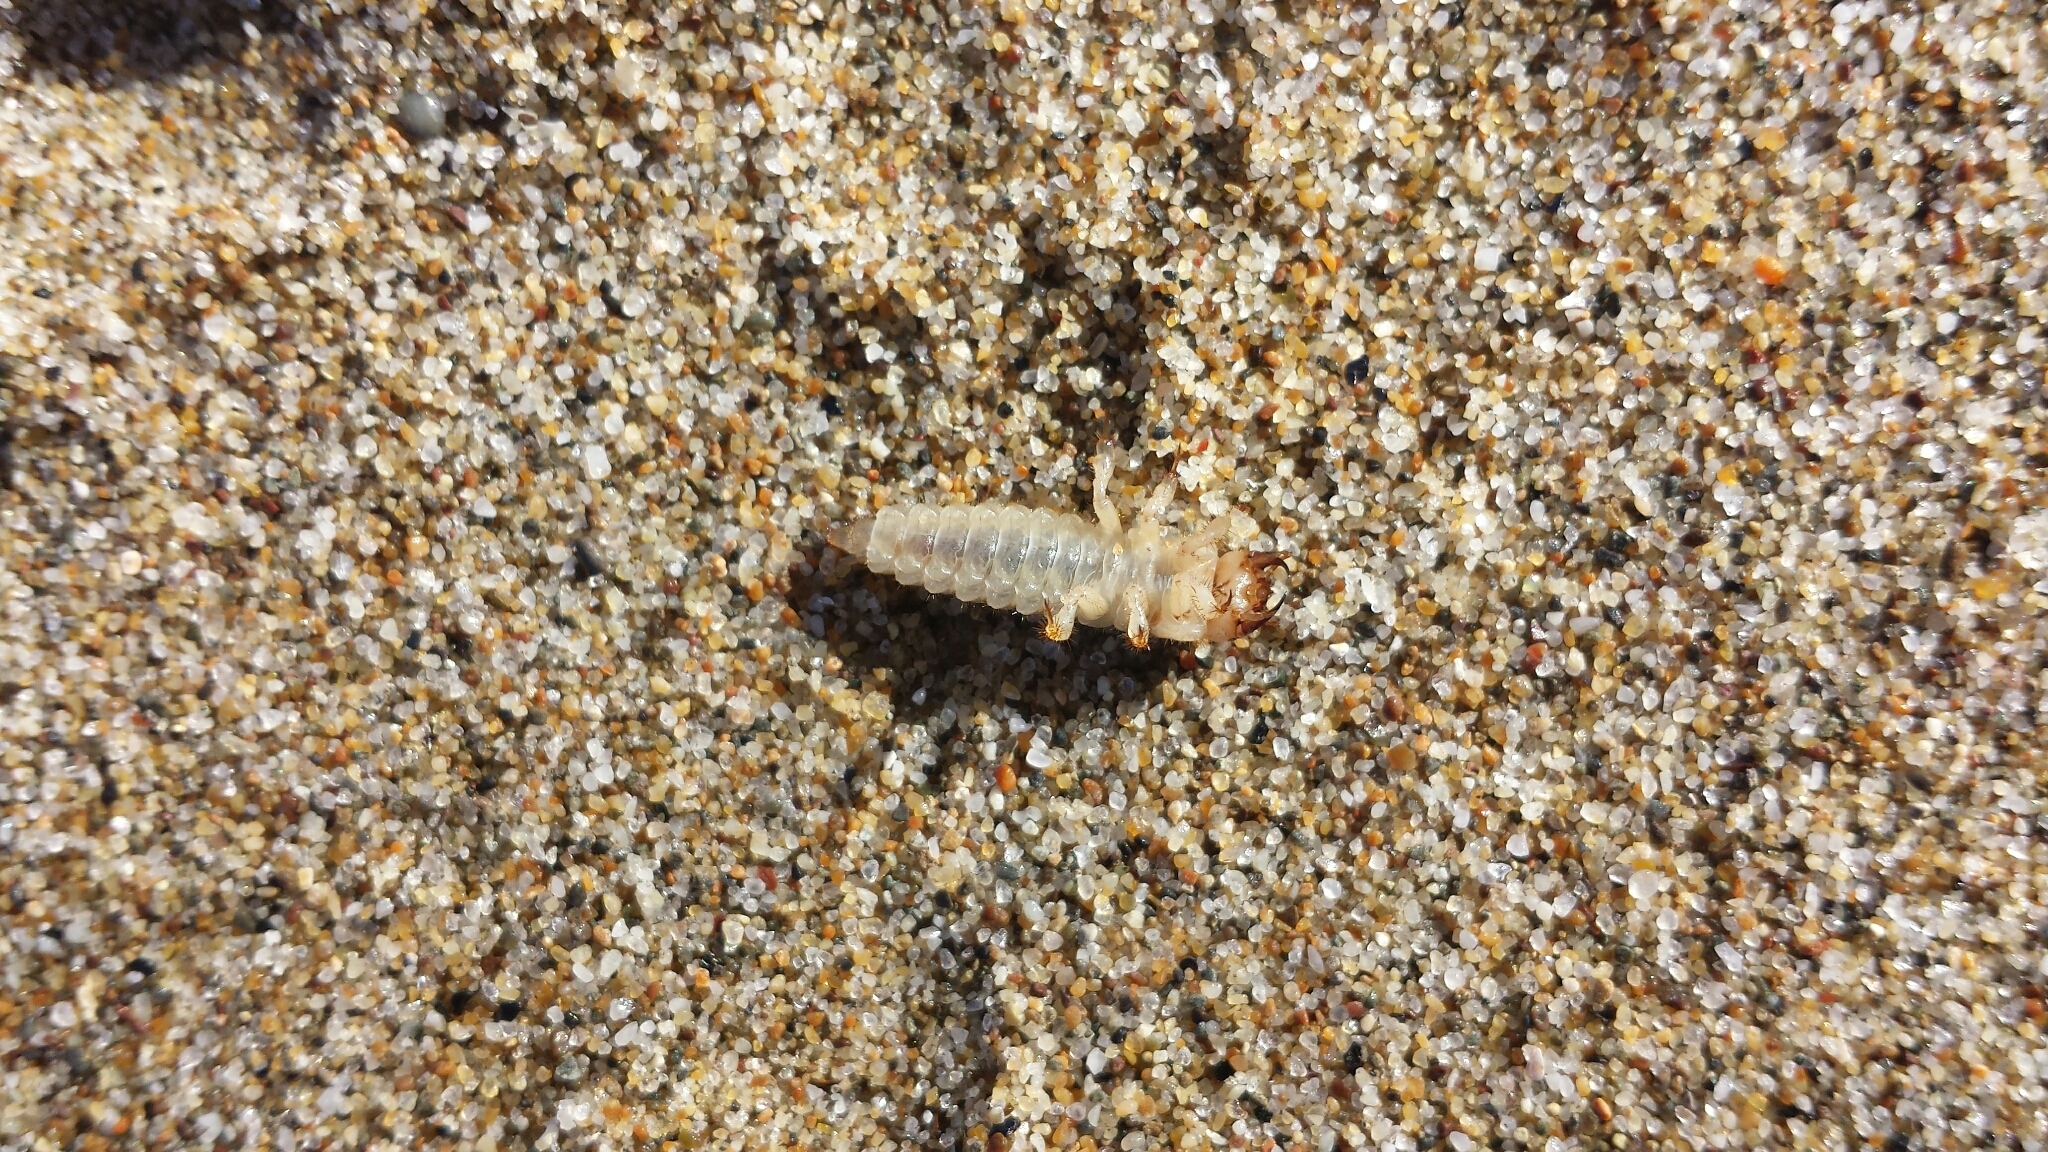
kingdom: Animalia
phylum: Arthropoda
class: Insecta
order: Coleoptera
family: Staphylinidae
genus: Thinopinus
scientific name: Thinopinus pictus
